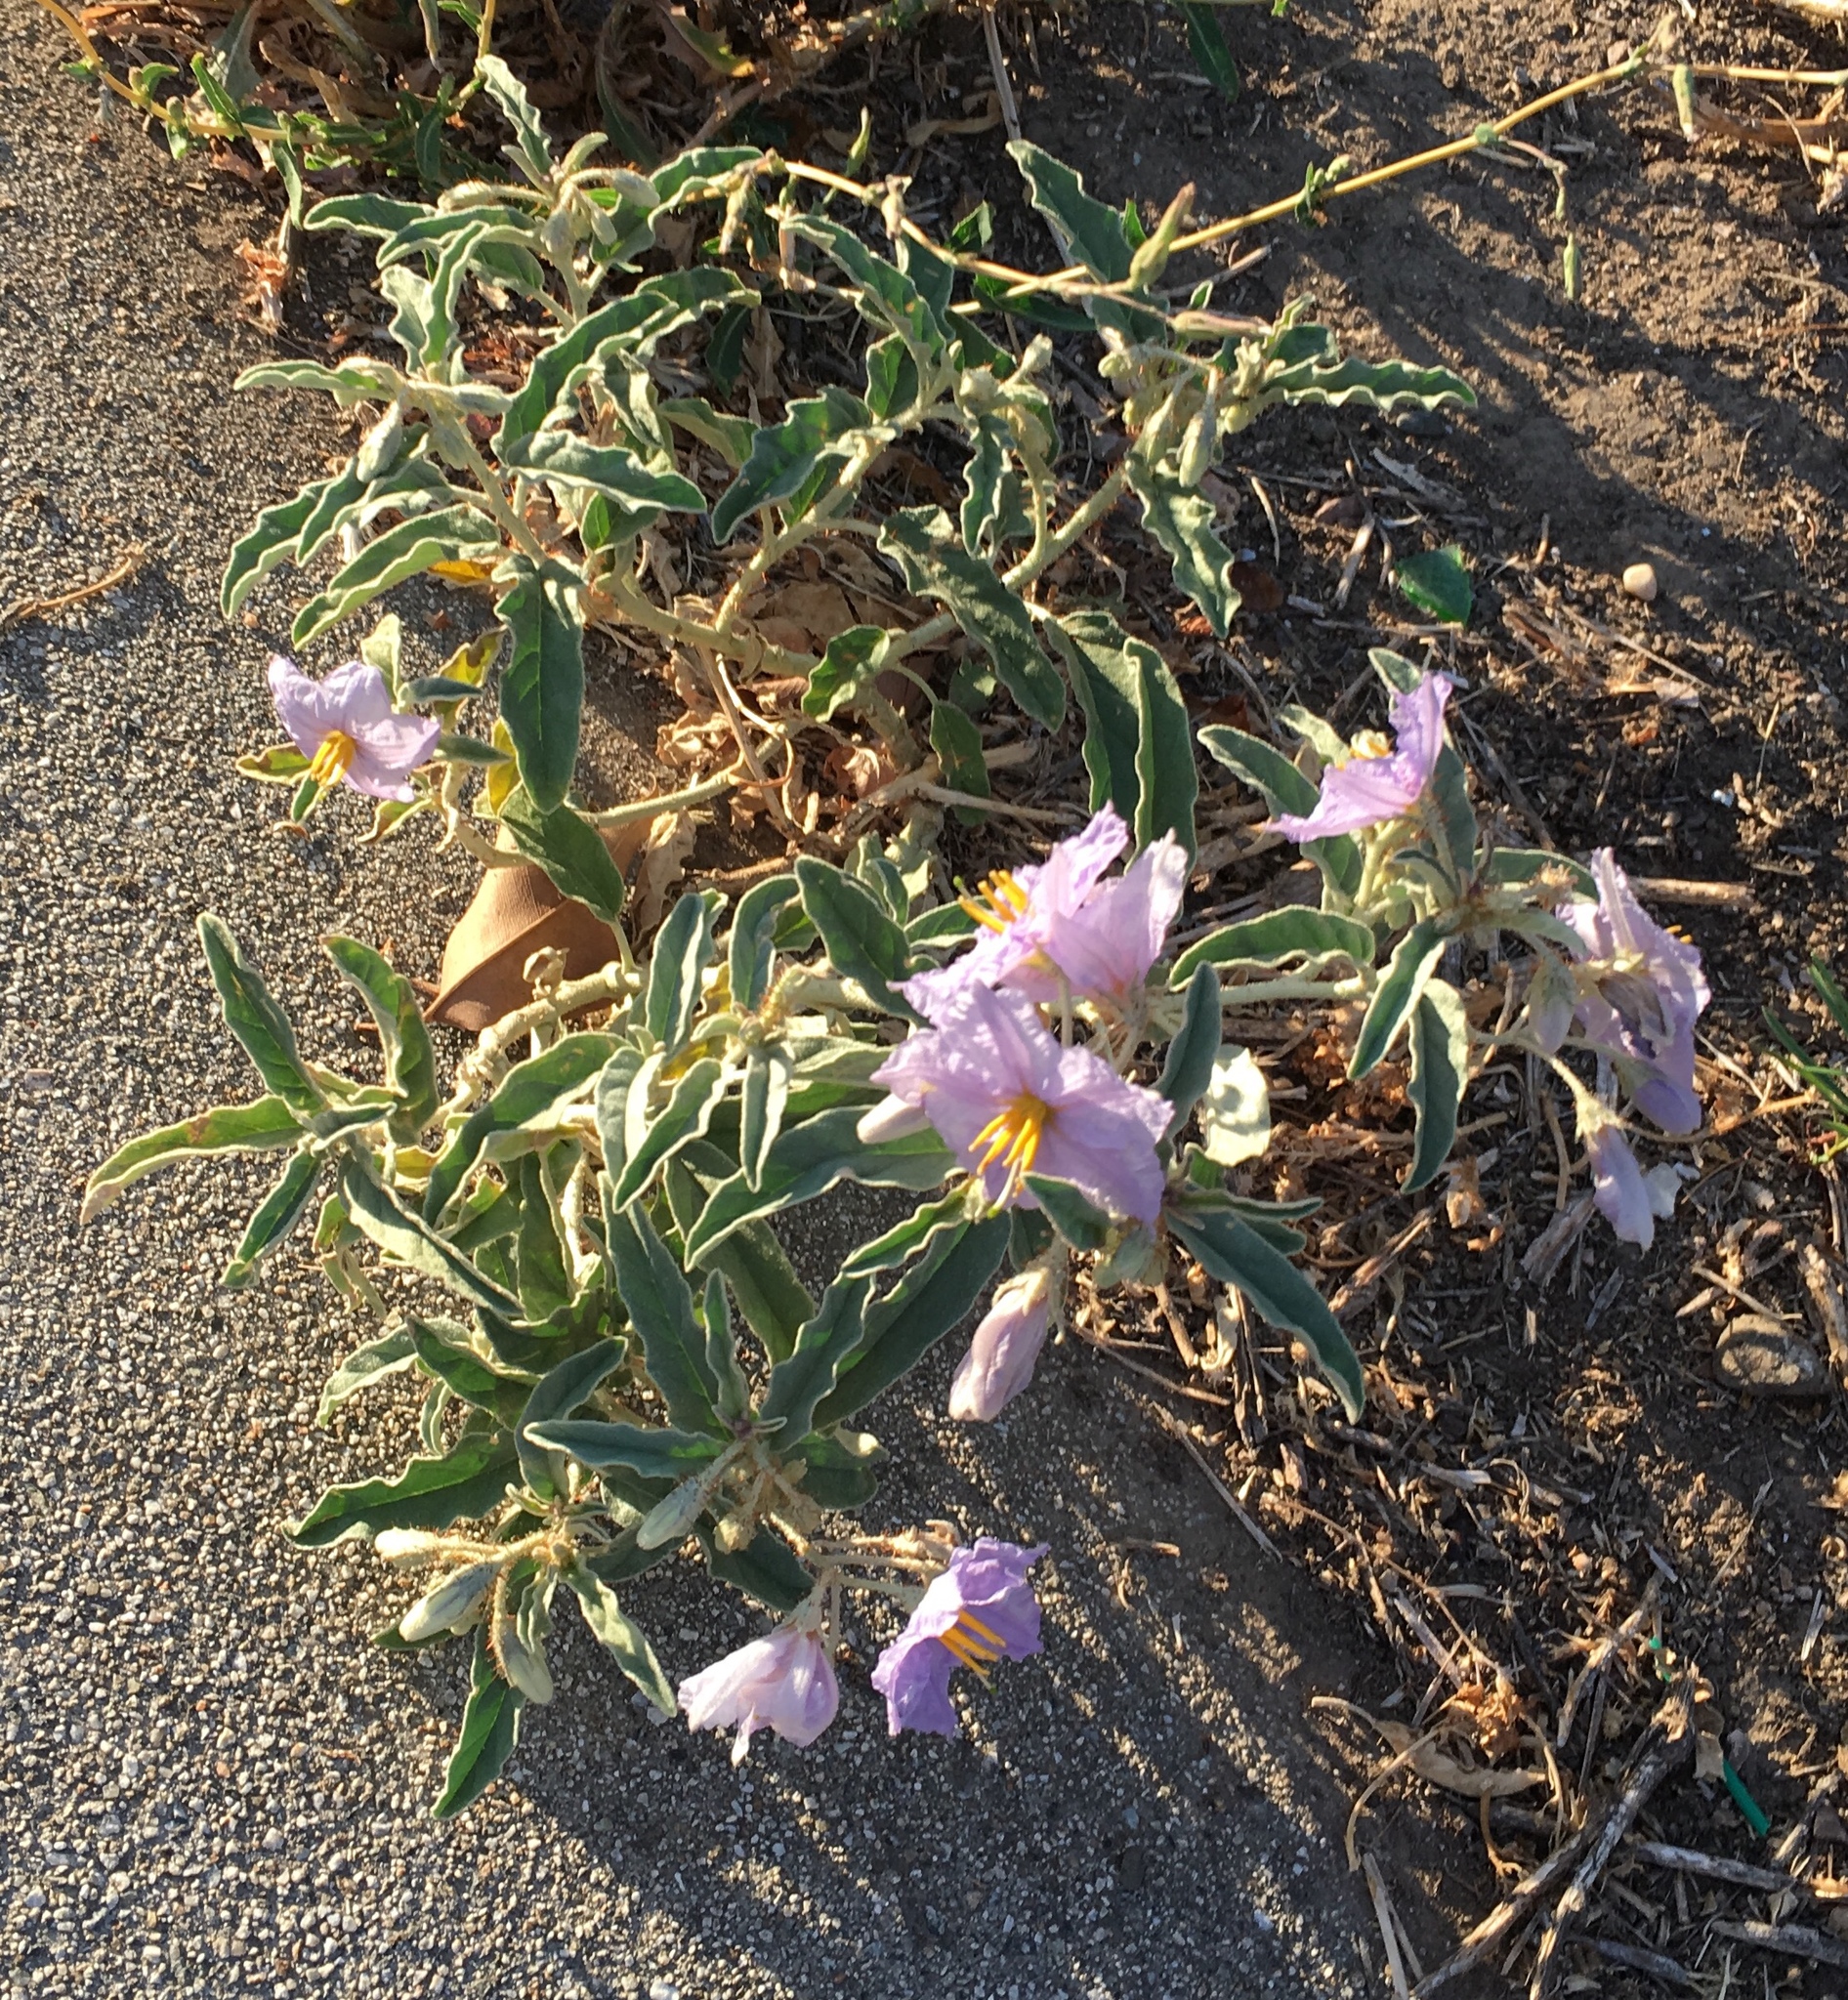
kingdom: Plantae
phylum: Tracheophyta
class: Magnoliopsida
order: Solanales
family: Solanaceae
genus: Solanum
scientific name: Solanum elaeagnifolium
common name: Silverleaf nightshade
